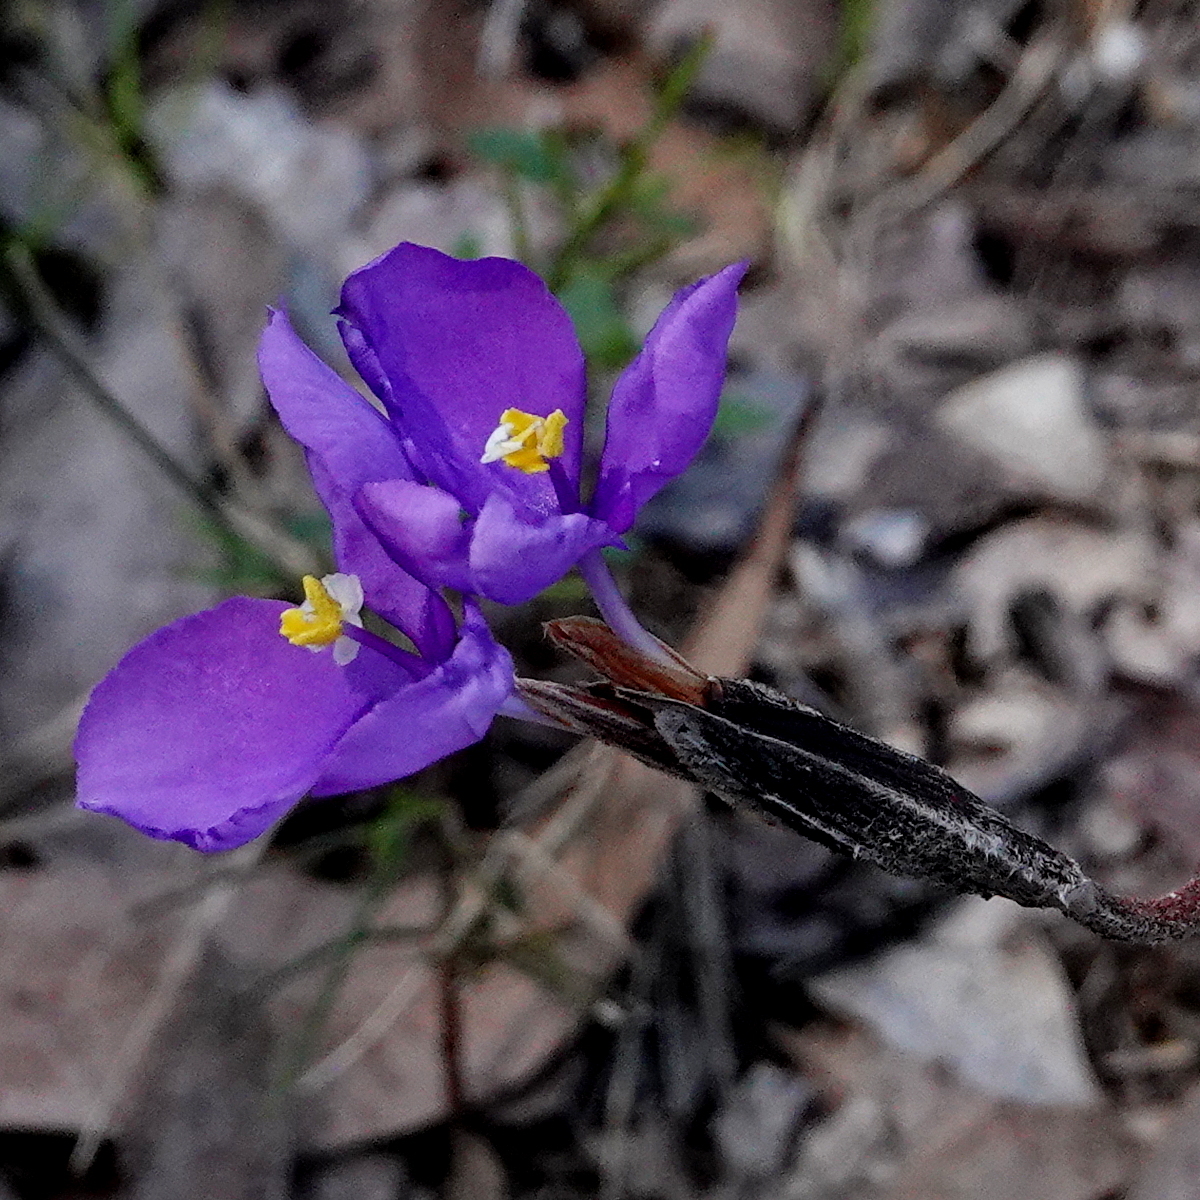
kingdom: Plantae
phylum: Tracheophyta
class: Liliopsida
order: Asparagales
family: Iridaceae
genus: Patersonia
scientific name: Patersonia sericea
